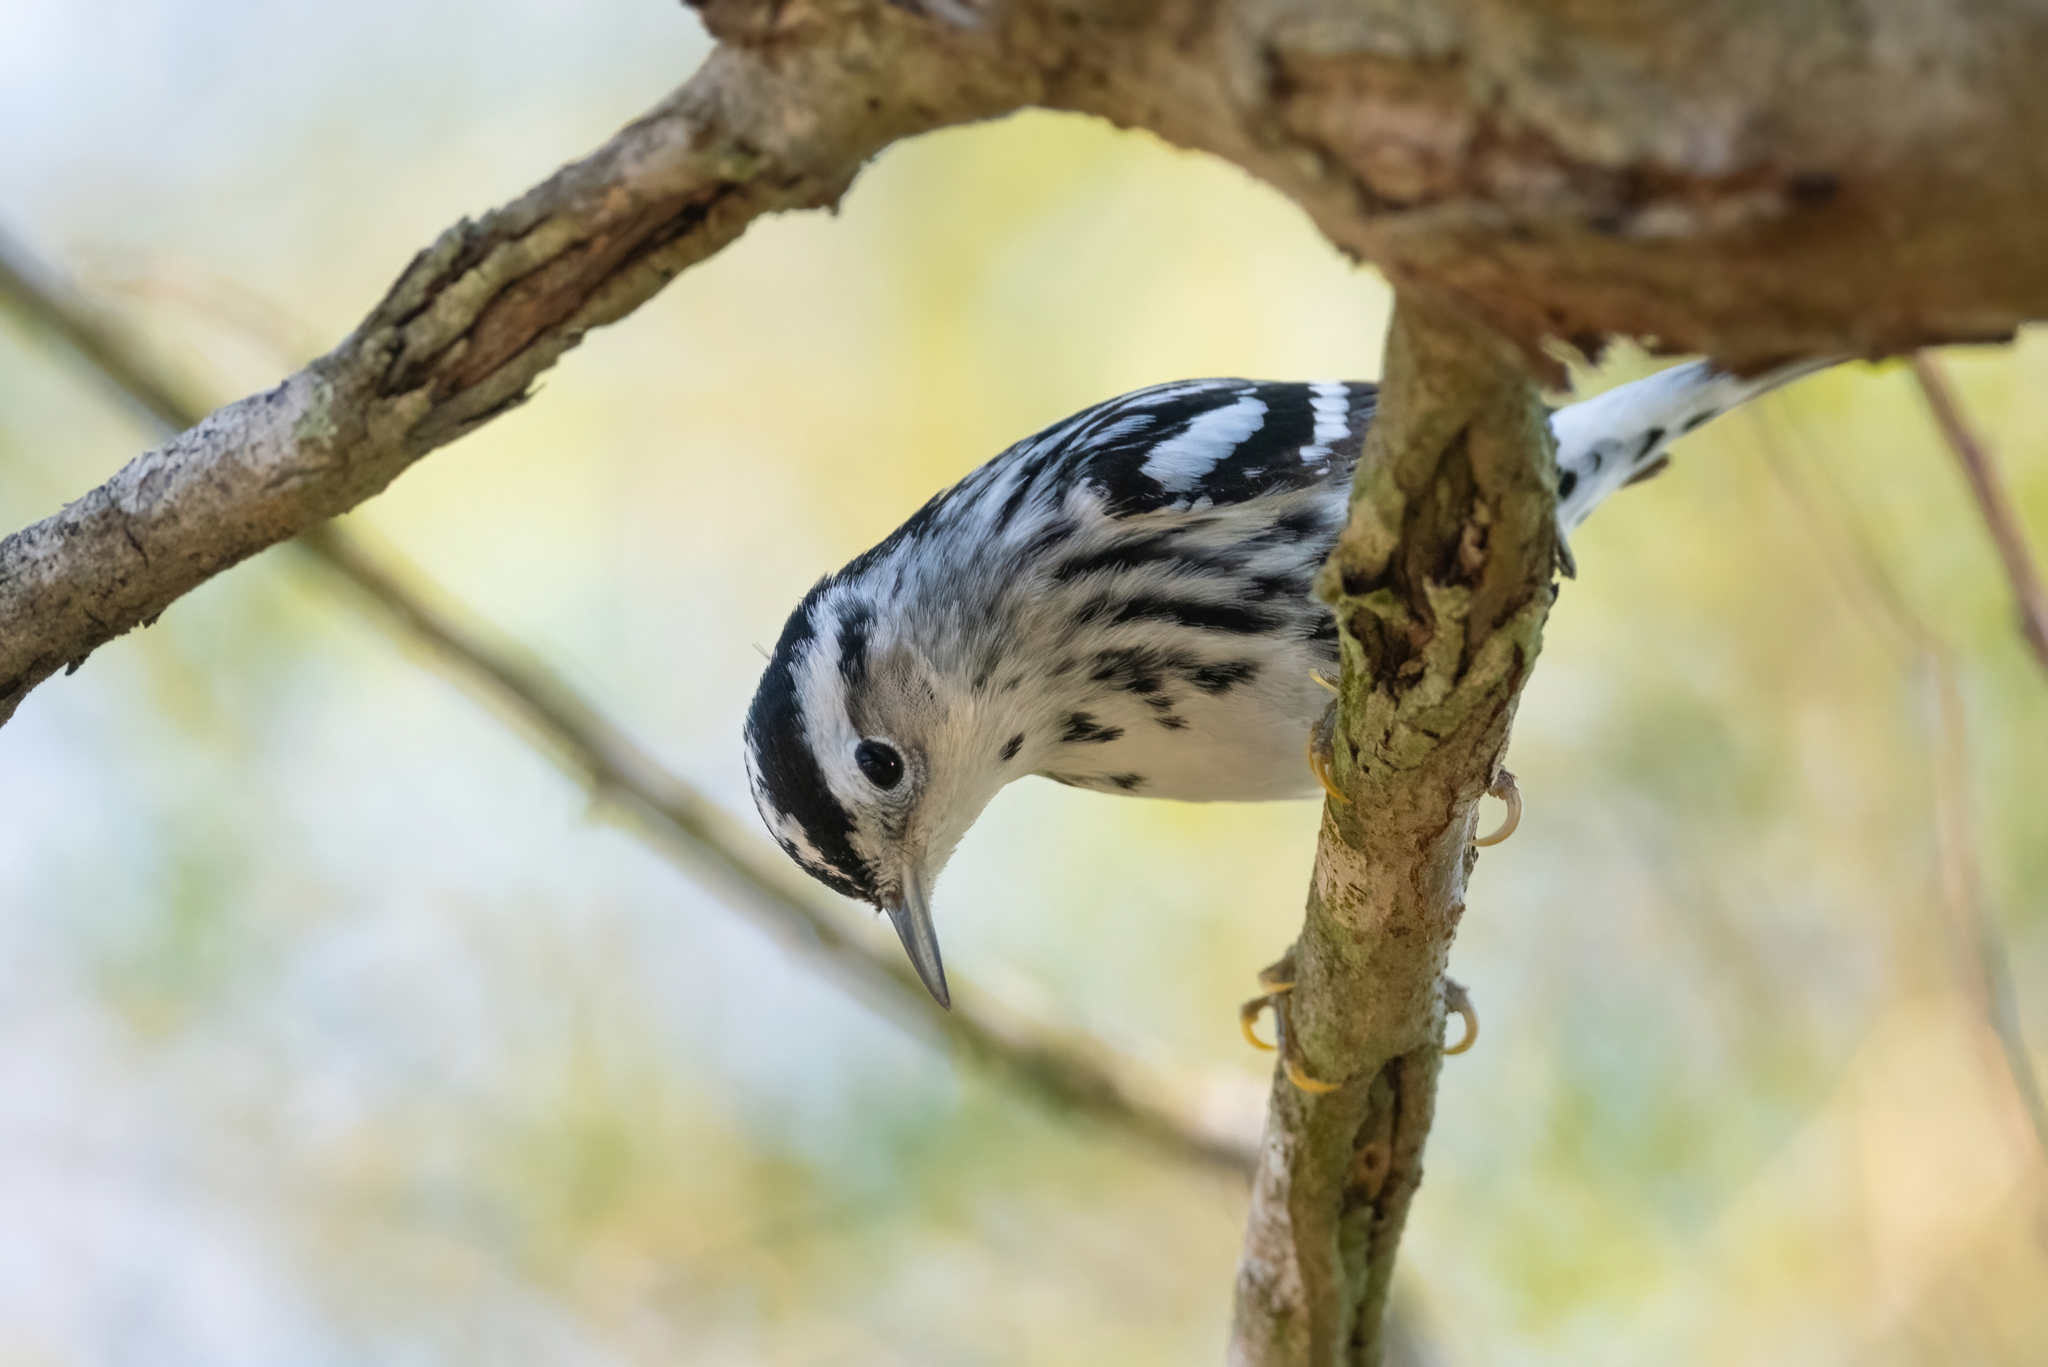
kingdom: Animalia
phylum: Chordata
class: Aves
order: Passeriformes
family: Parulidae
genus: Mniotilta
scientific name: Mniotilta varia
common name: Black-and-white warbler
